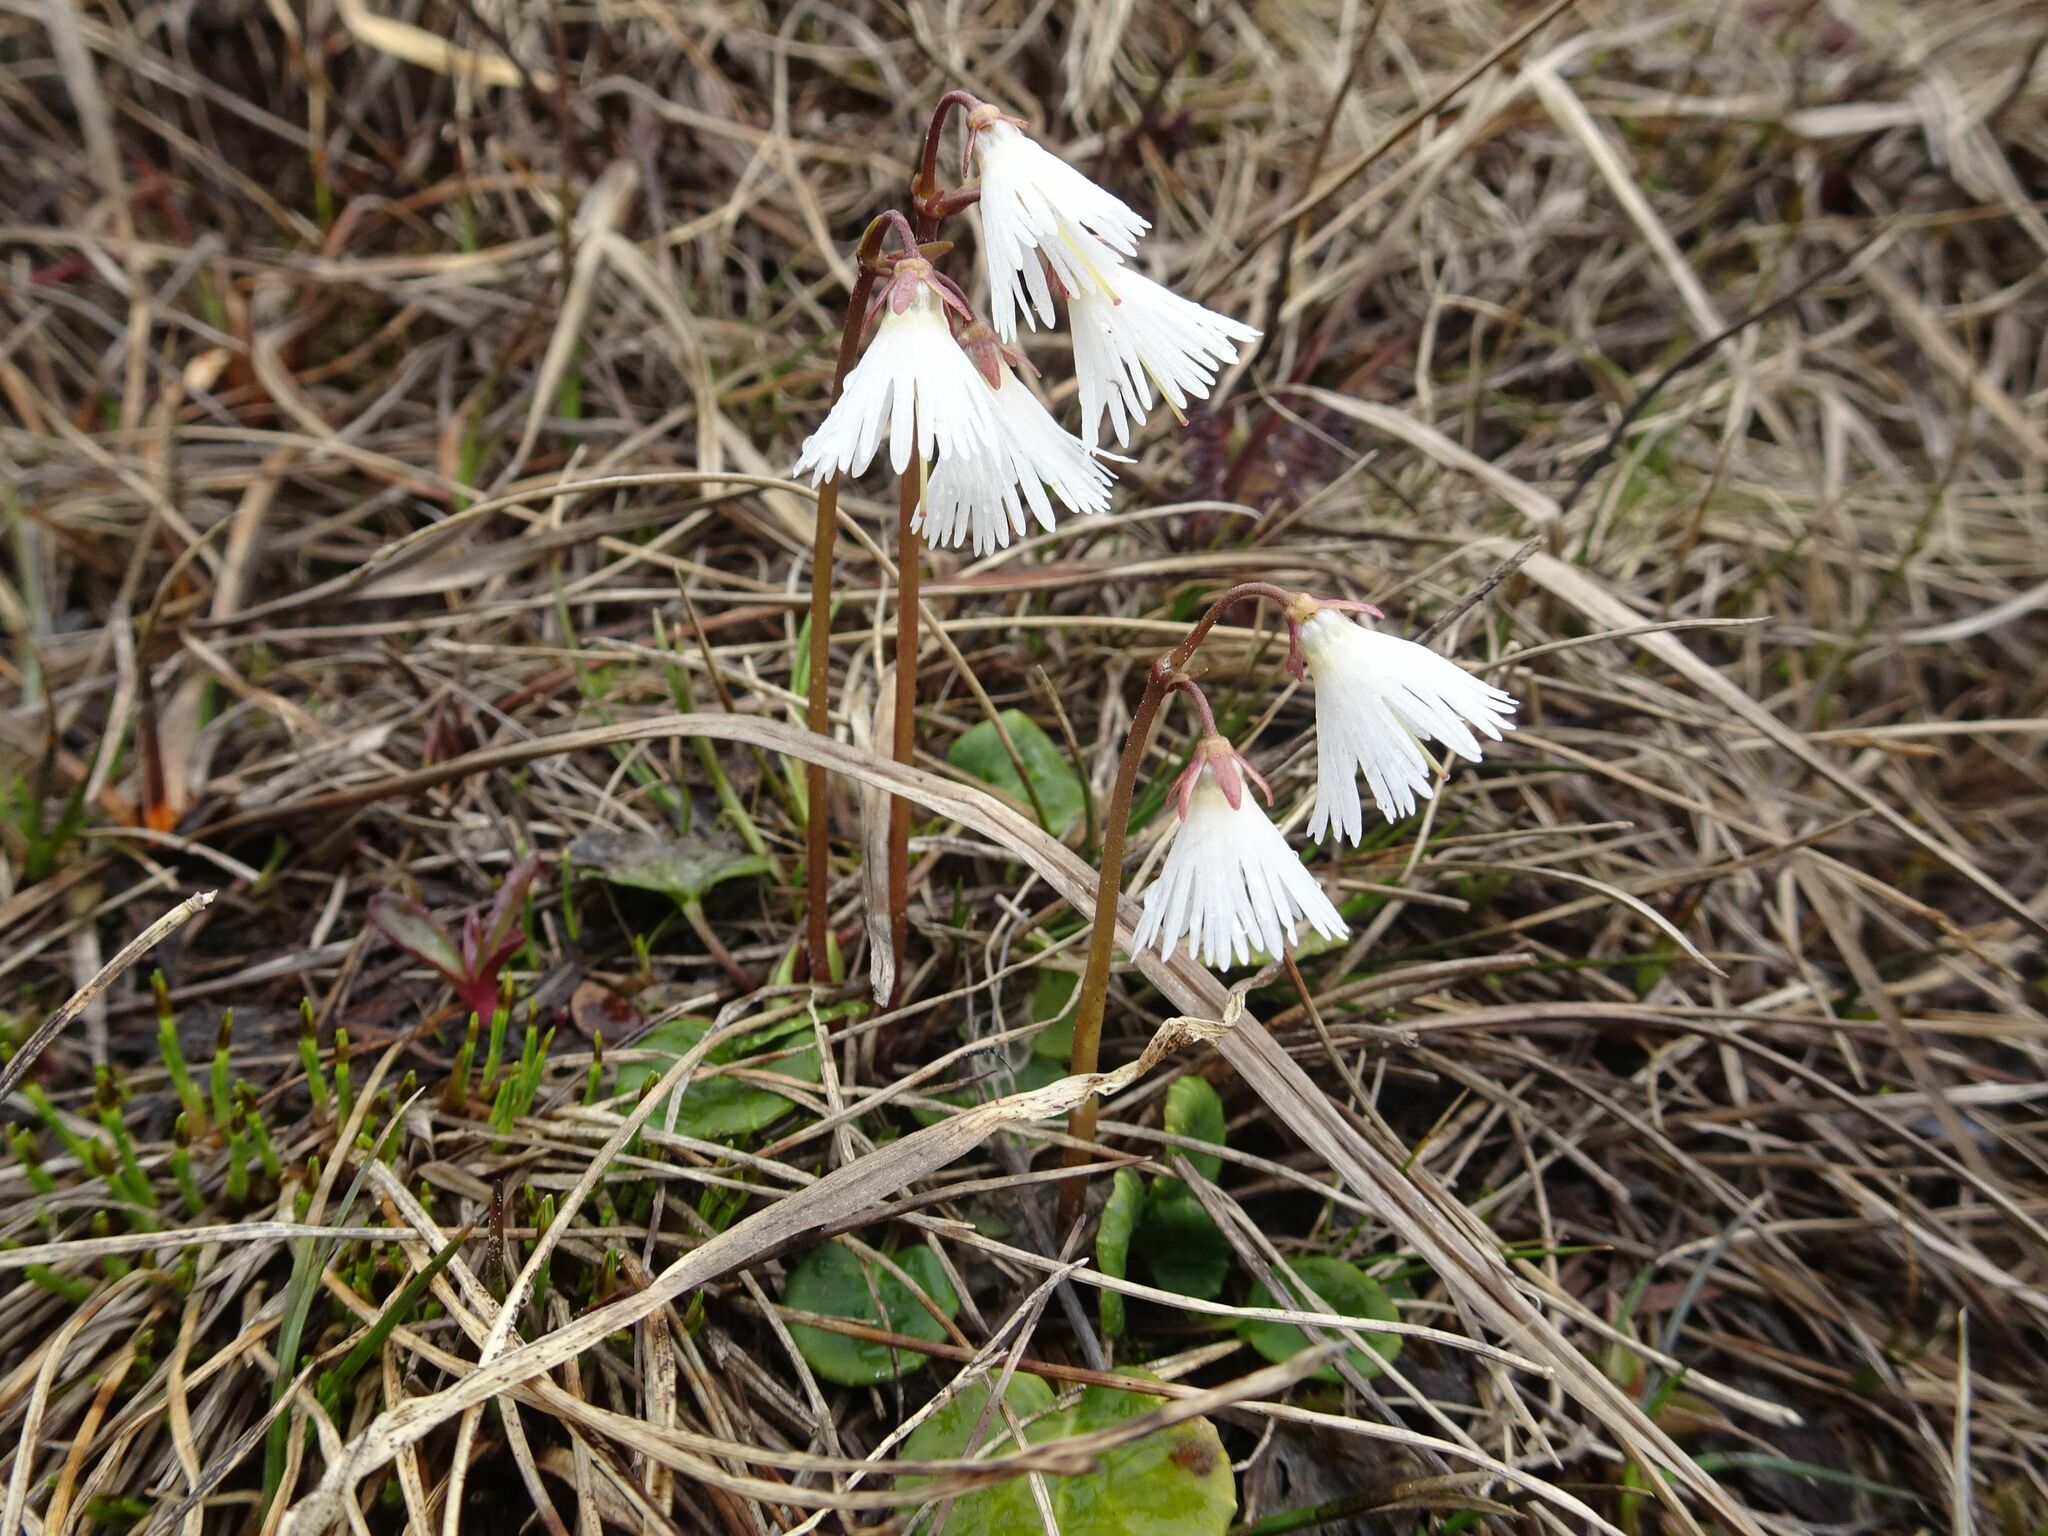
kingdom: Plantae
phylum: Tracheophyta
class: Magnoliopsida
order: Ericales
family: Primulaceae
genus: Soldanella
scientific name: Soldanella alpina
